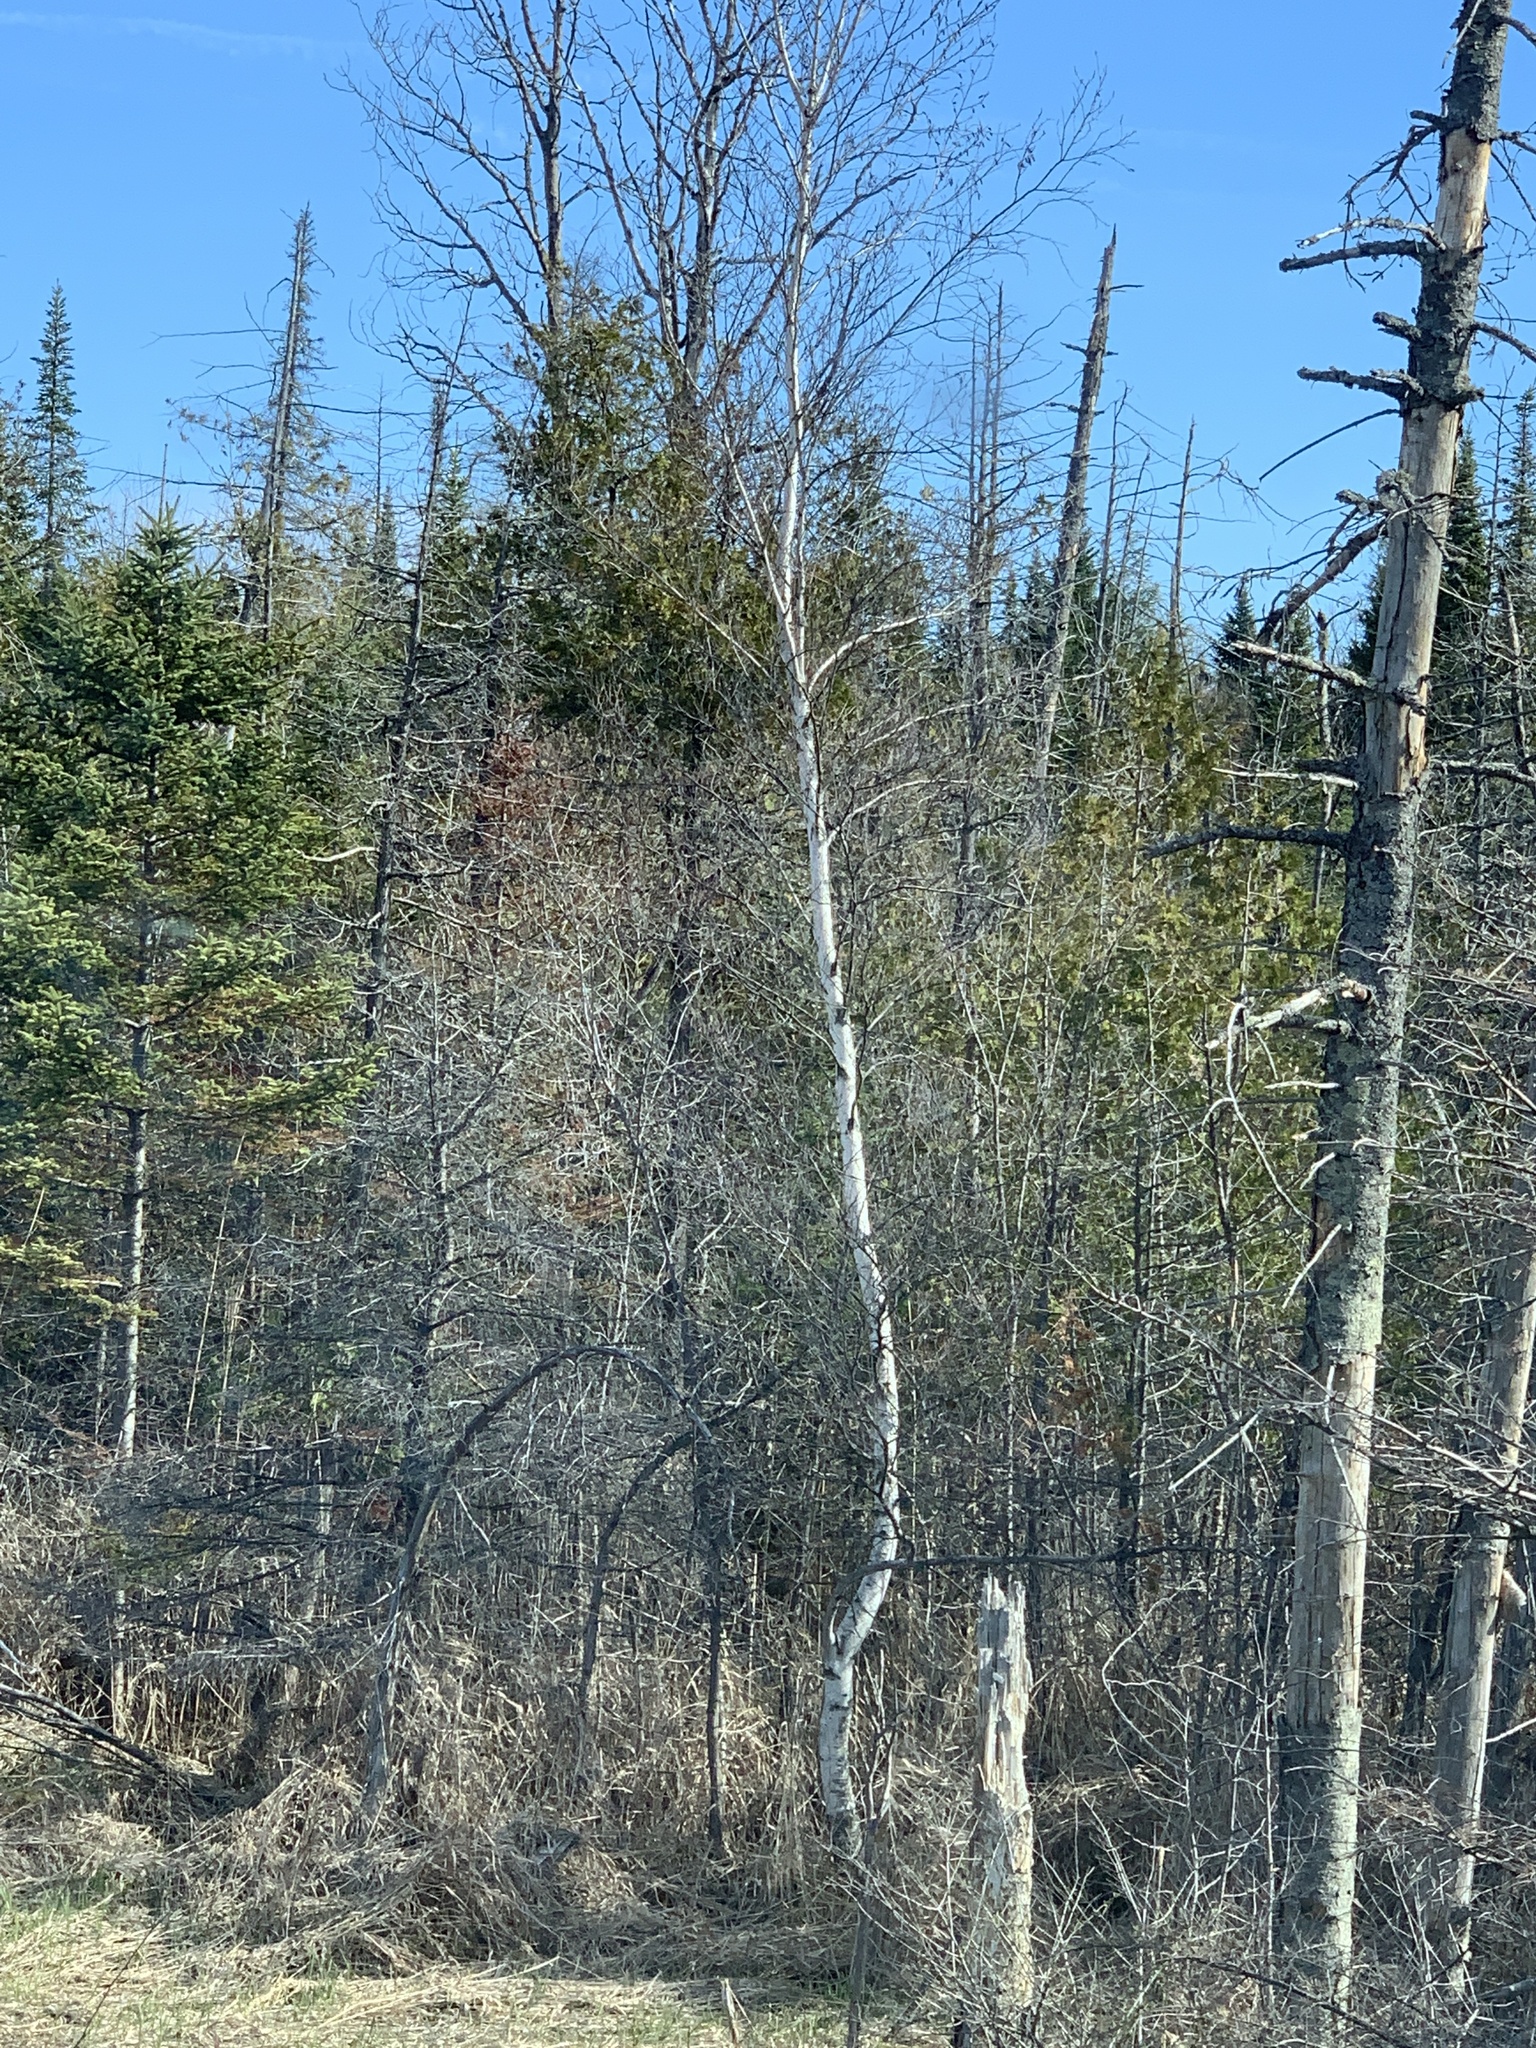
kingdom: Plantae
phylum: Tracheophyta
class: Magnoliopsida
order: Fagales
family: Betulaceae
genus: Betula
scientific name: Betula populifolia
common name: Fire birch
